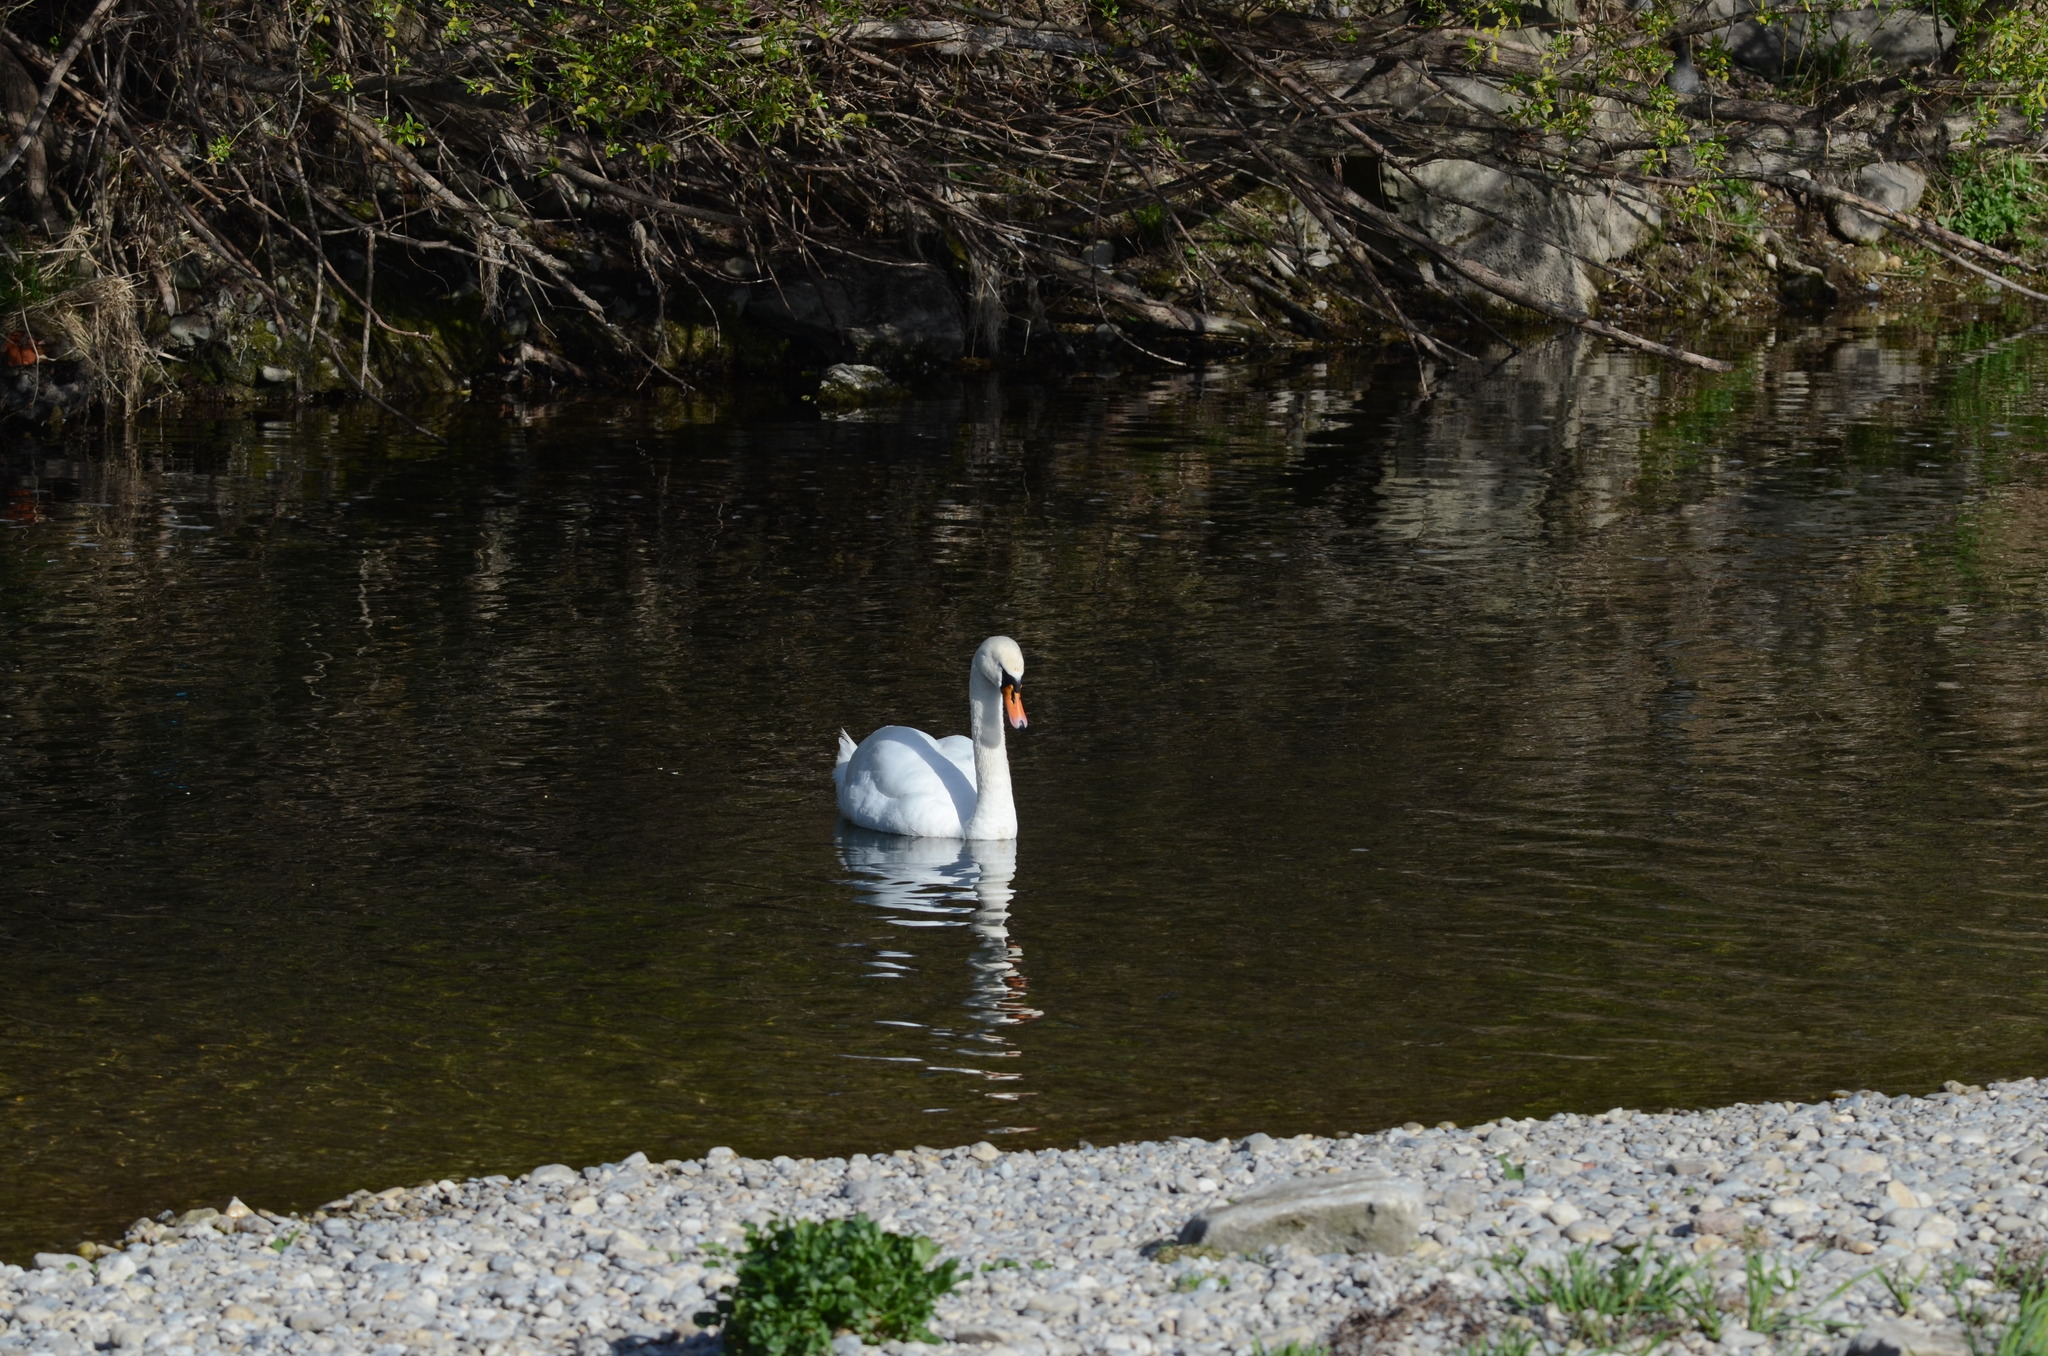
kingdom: Animalia
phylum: Chordata
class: Aves
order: Anseriformes
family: Anatidae
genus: Cygnus
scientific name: Cygnus olor
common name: Mute swan
